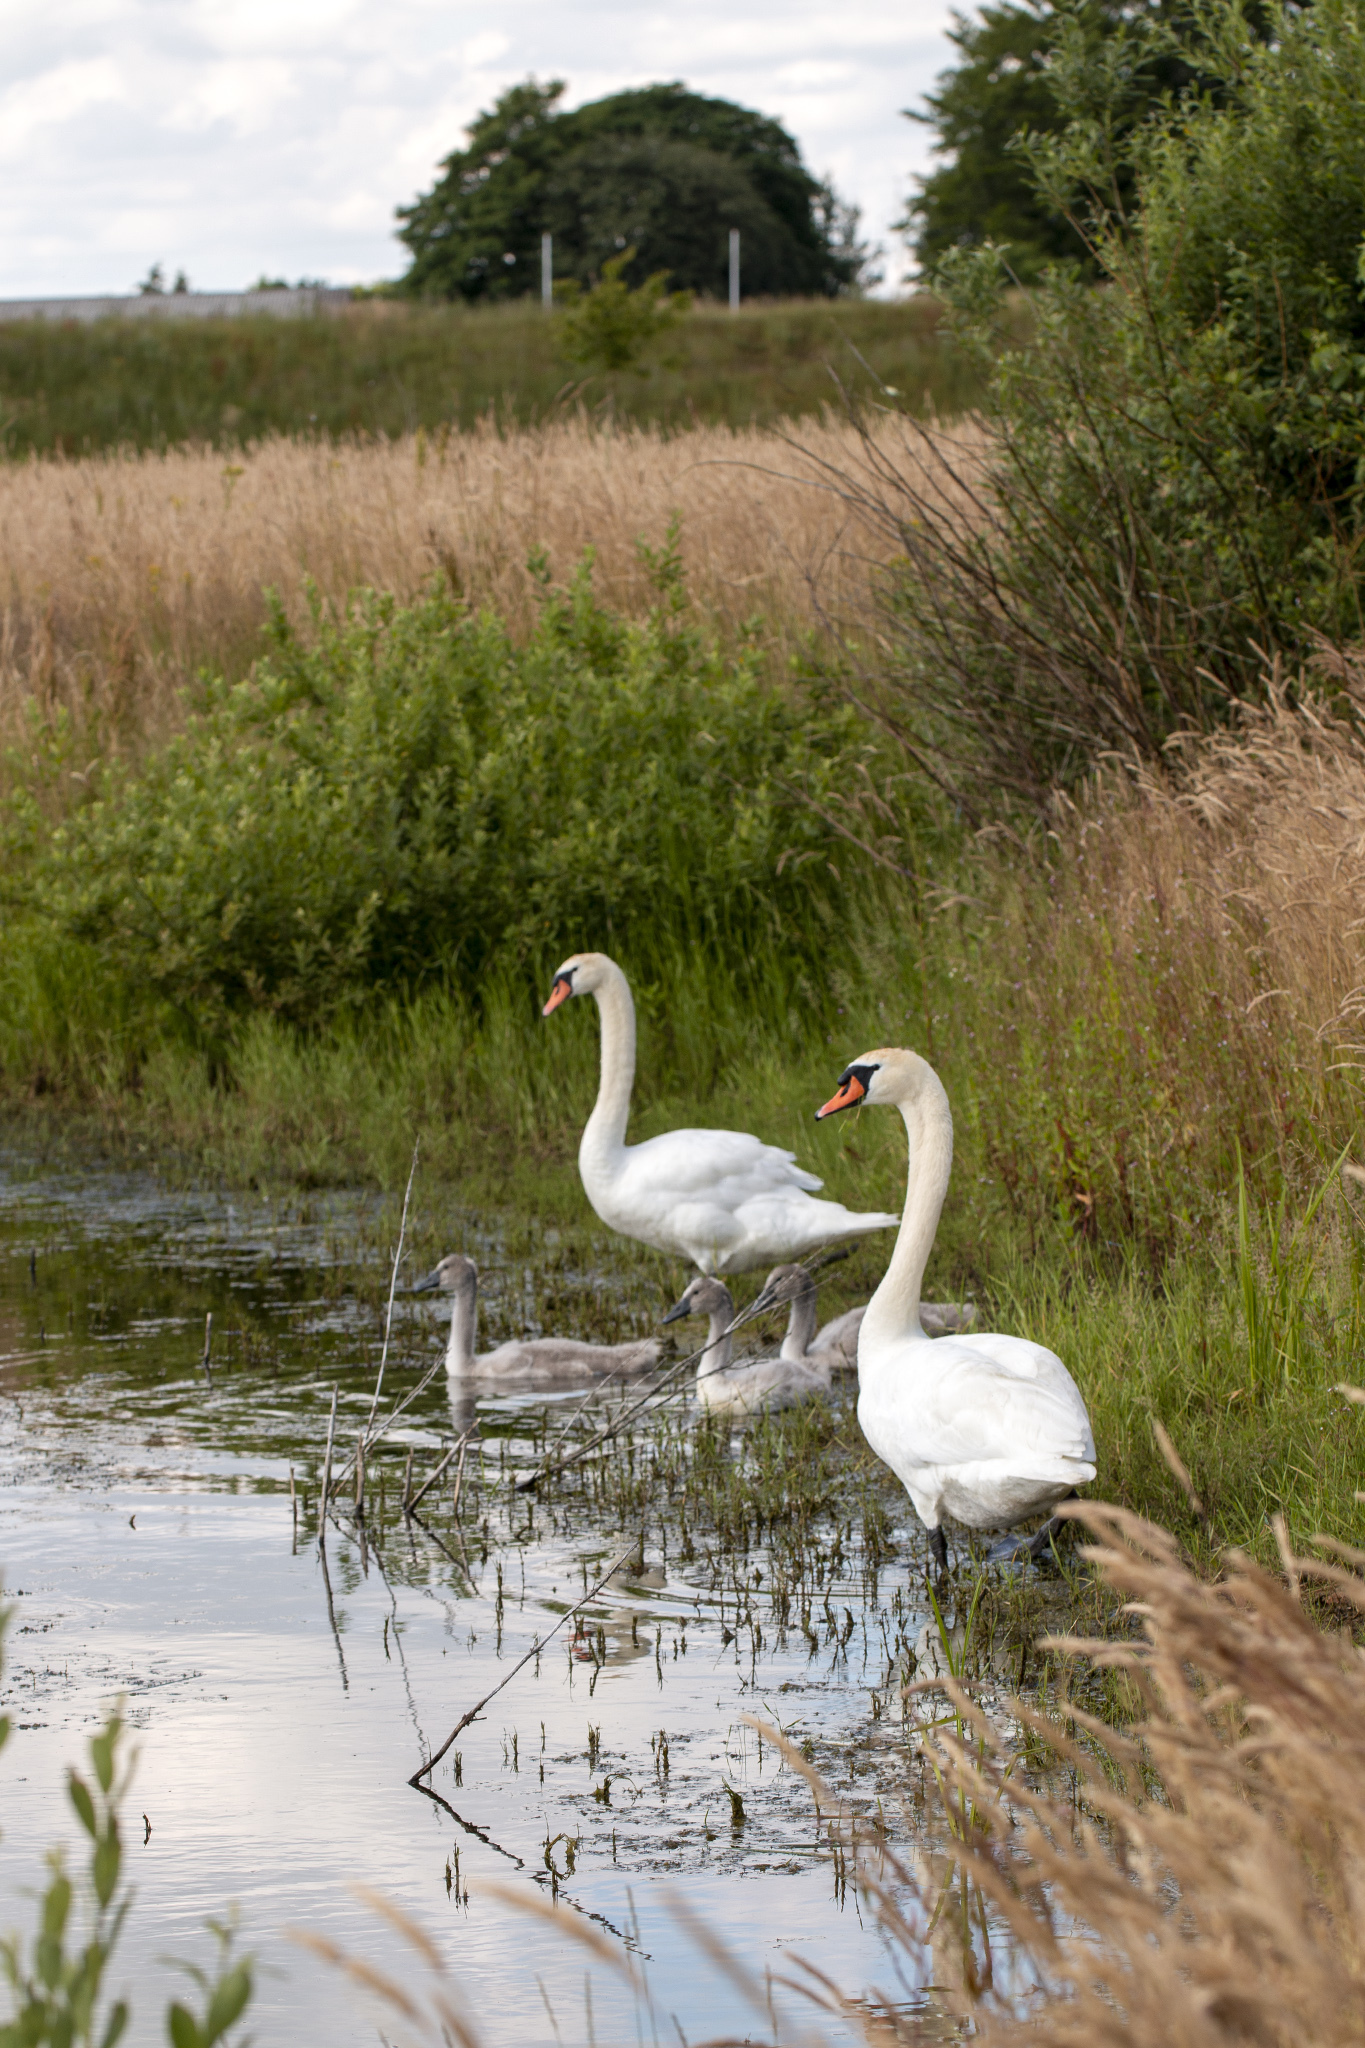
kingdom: Animalia
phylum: Chordata
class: Aves
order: Anseriformes
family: Anatidae
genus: Cygnus
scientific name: Cygnus olor
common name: Mute swan
